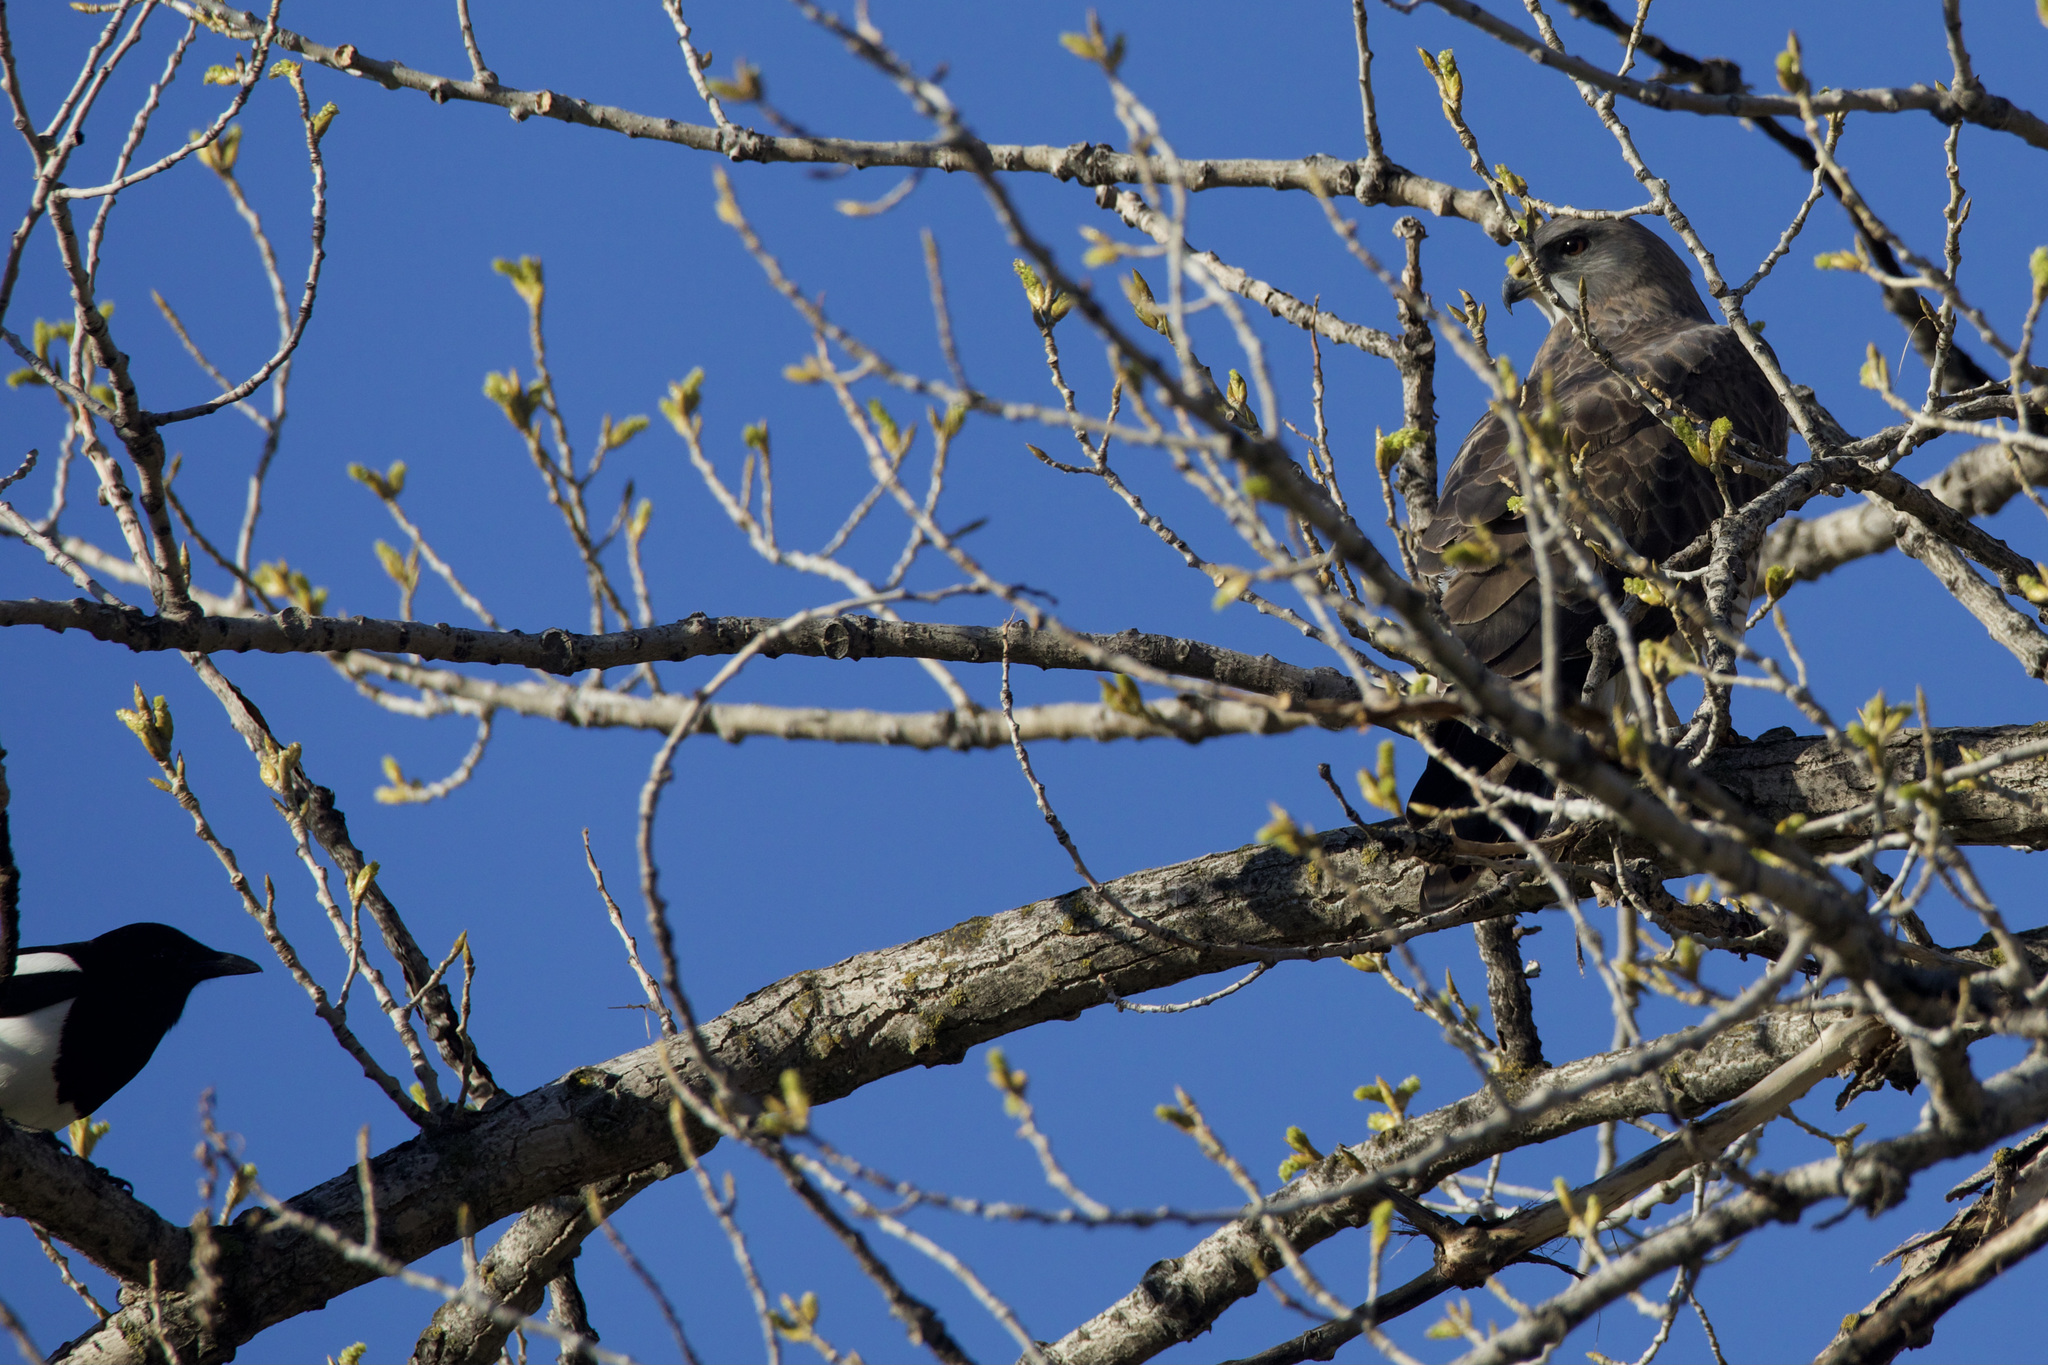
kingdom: Animalia
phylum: Chordata
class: Aves
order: Accipitriformes
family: Accipitridae
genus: Buteo
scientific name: Buteo swainsoni
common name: Swainson's hawk
